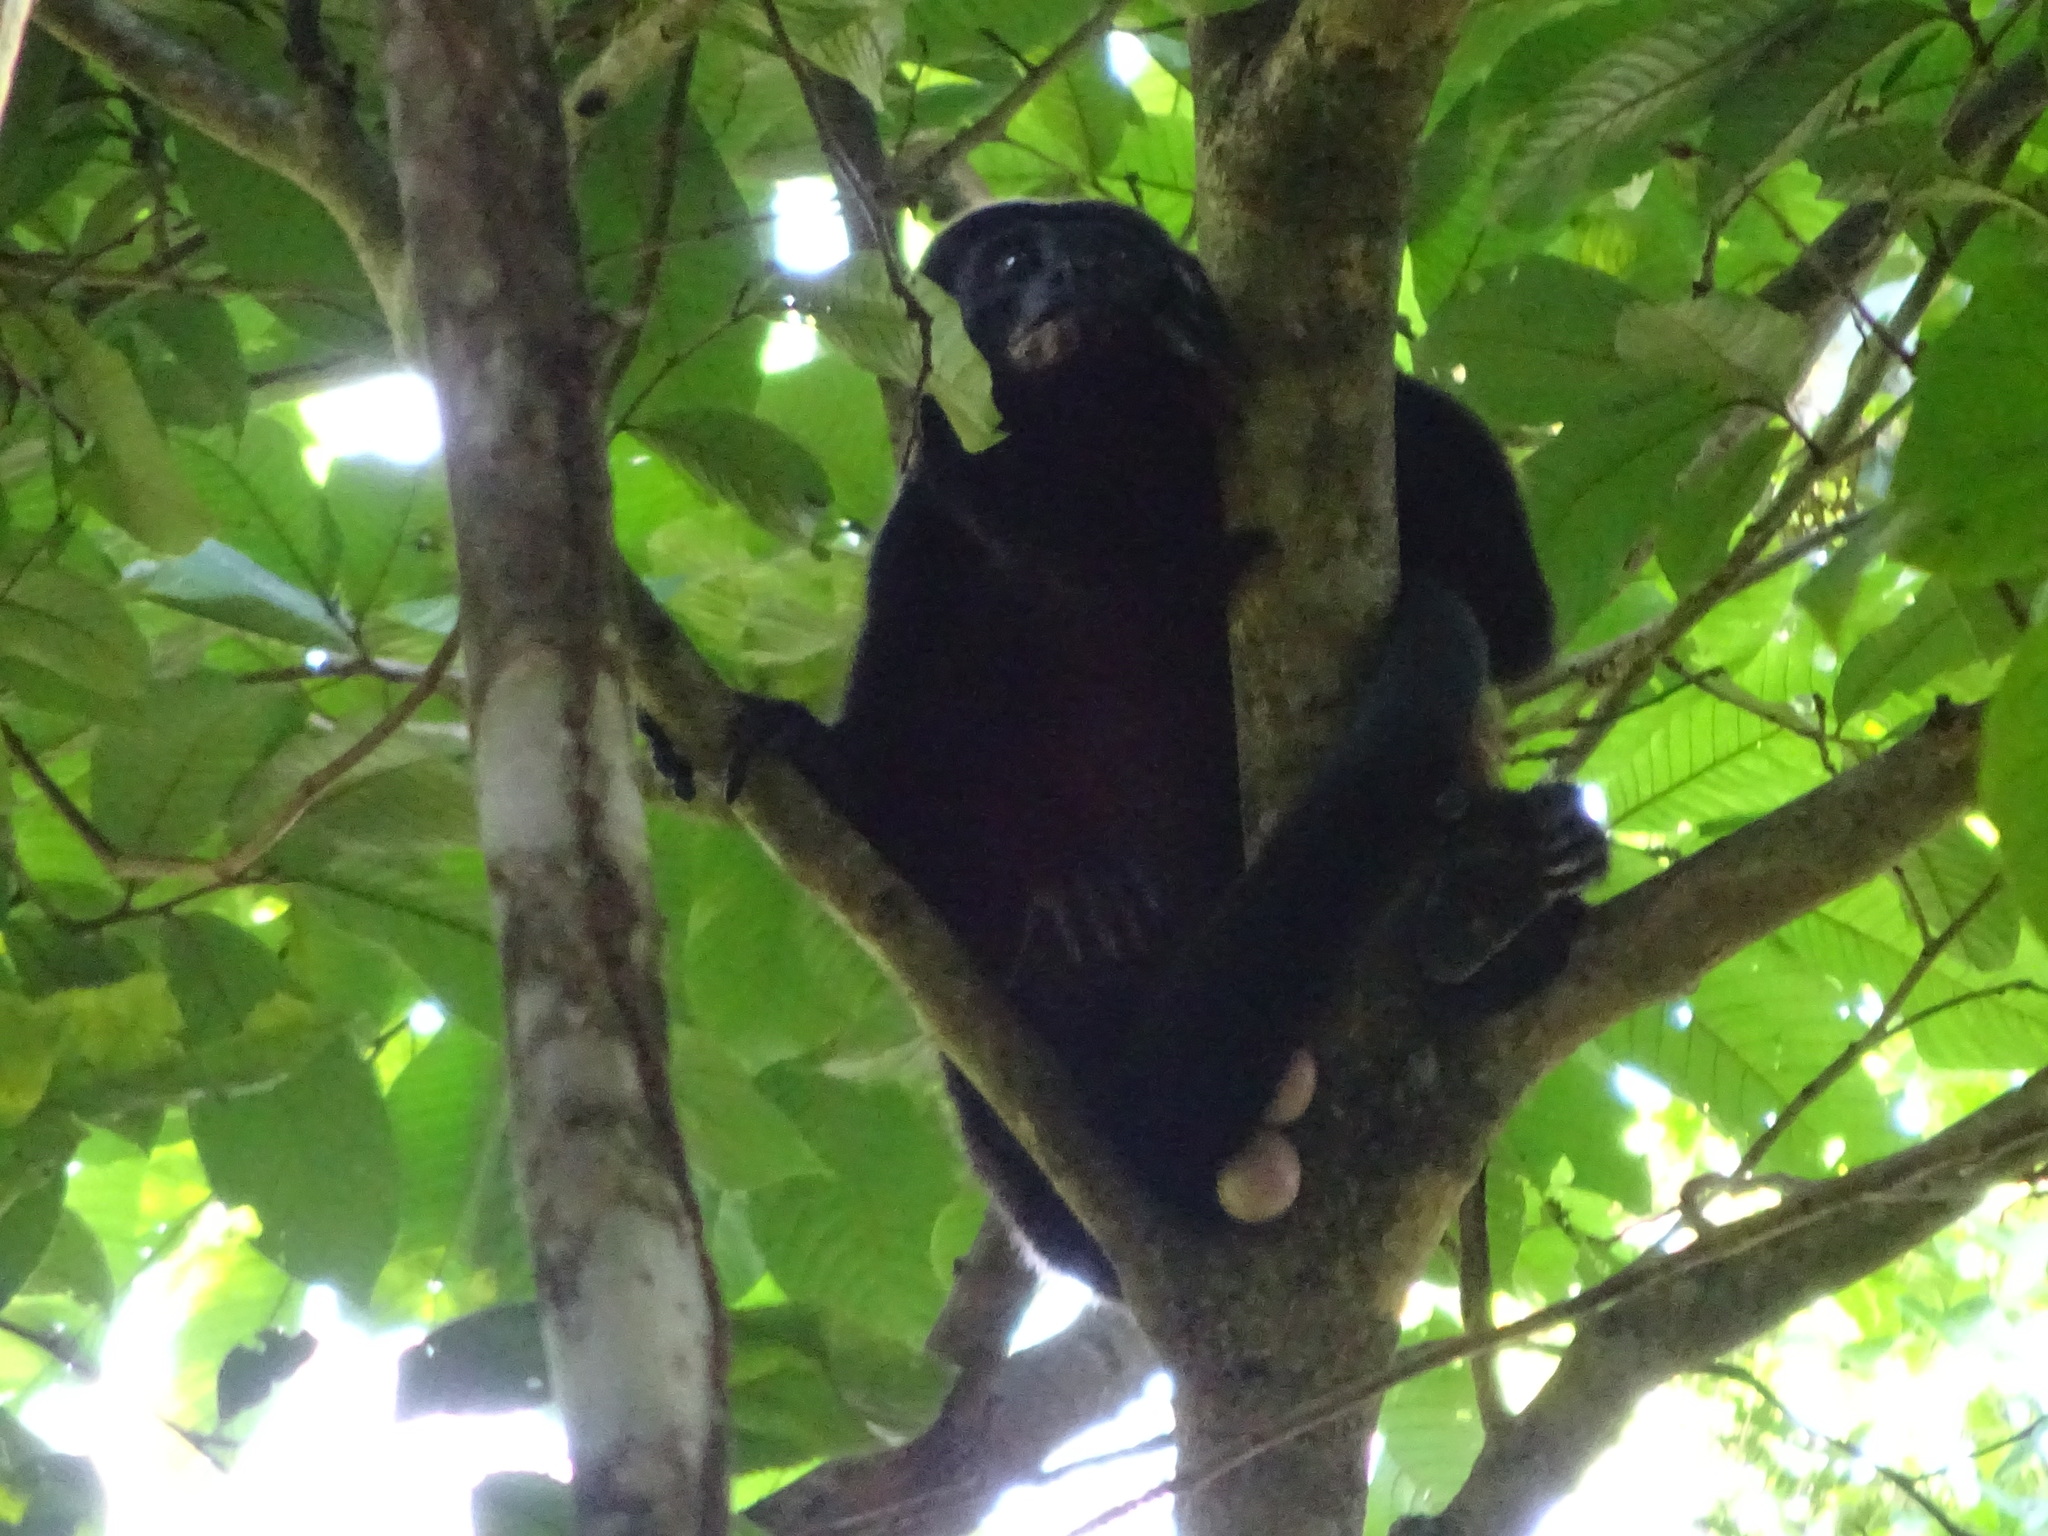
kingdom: Animalia
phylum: Chordata
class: Mammalia
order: Primates
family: Atelidae
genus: Alouatta
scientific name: Alouatta palliata
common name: Mantled howler
